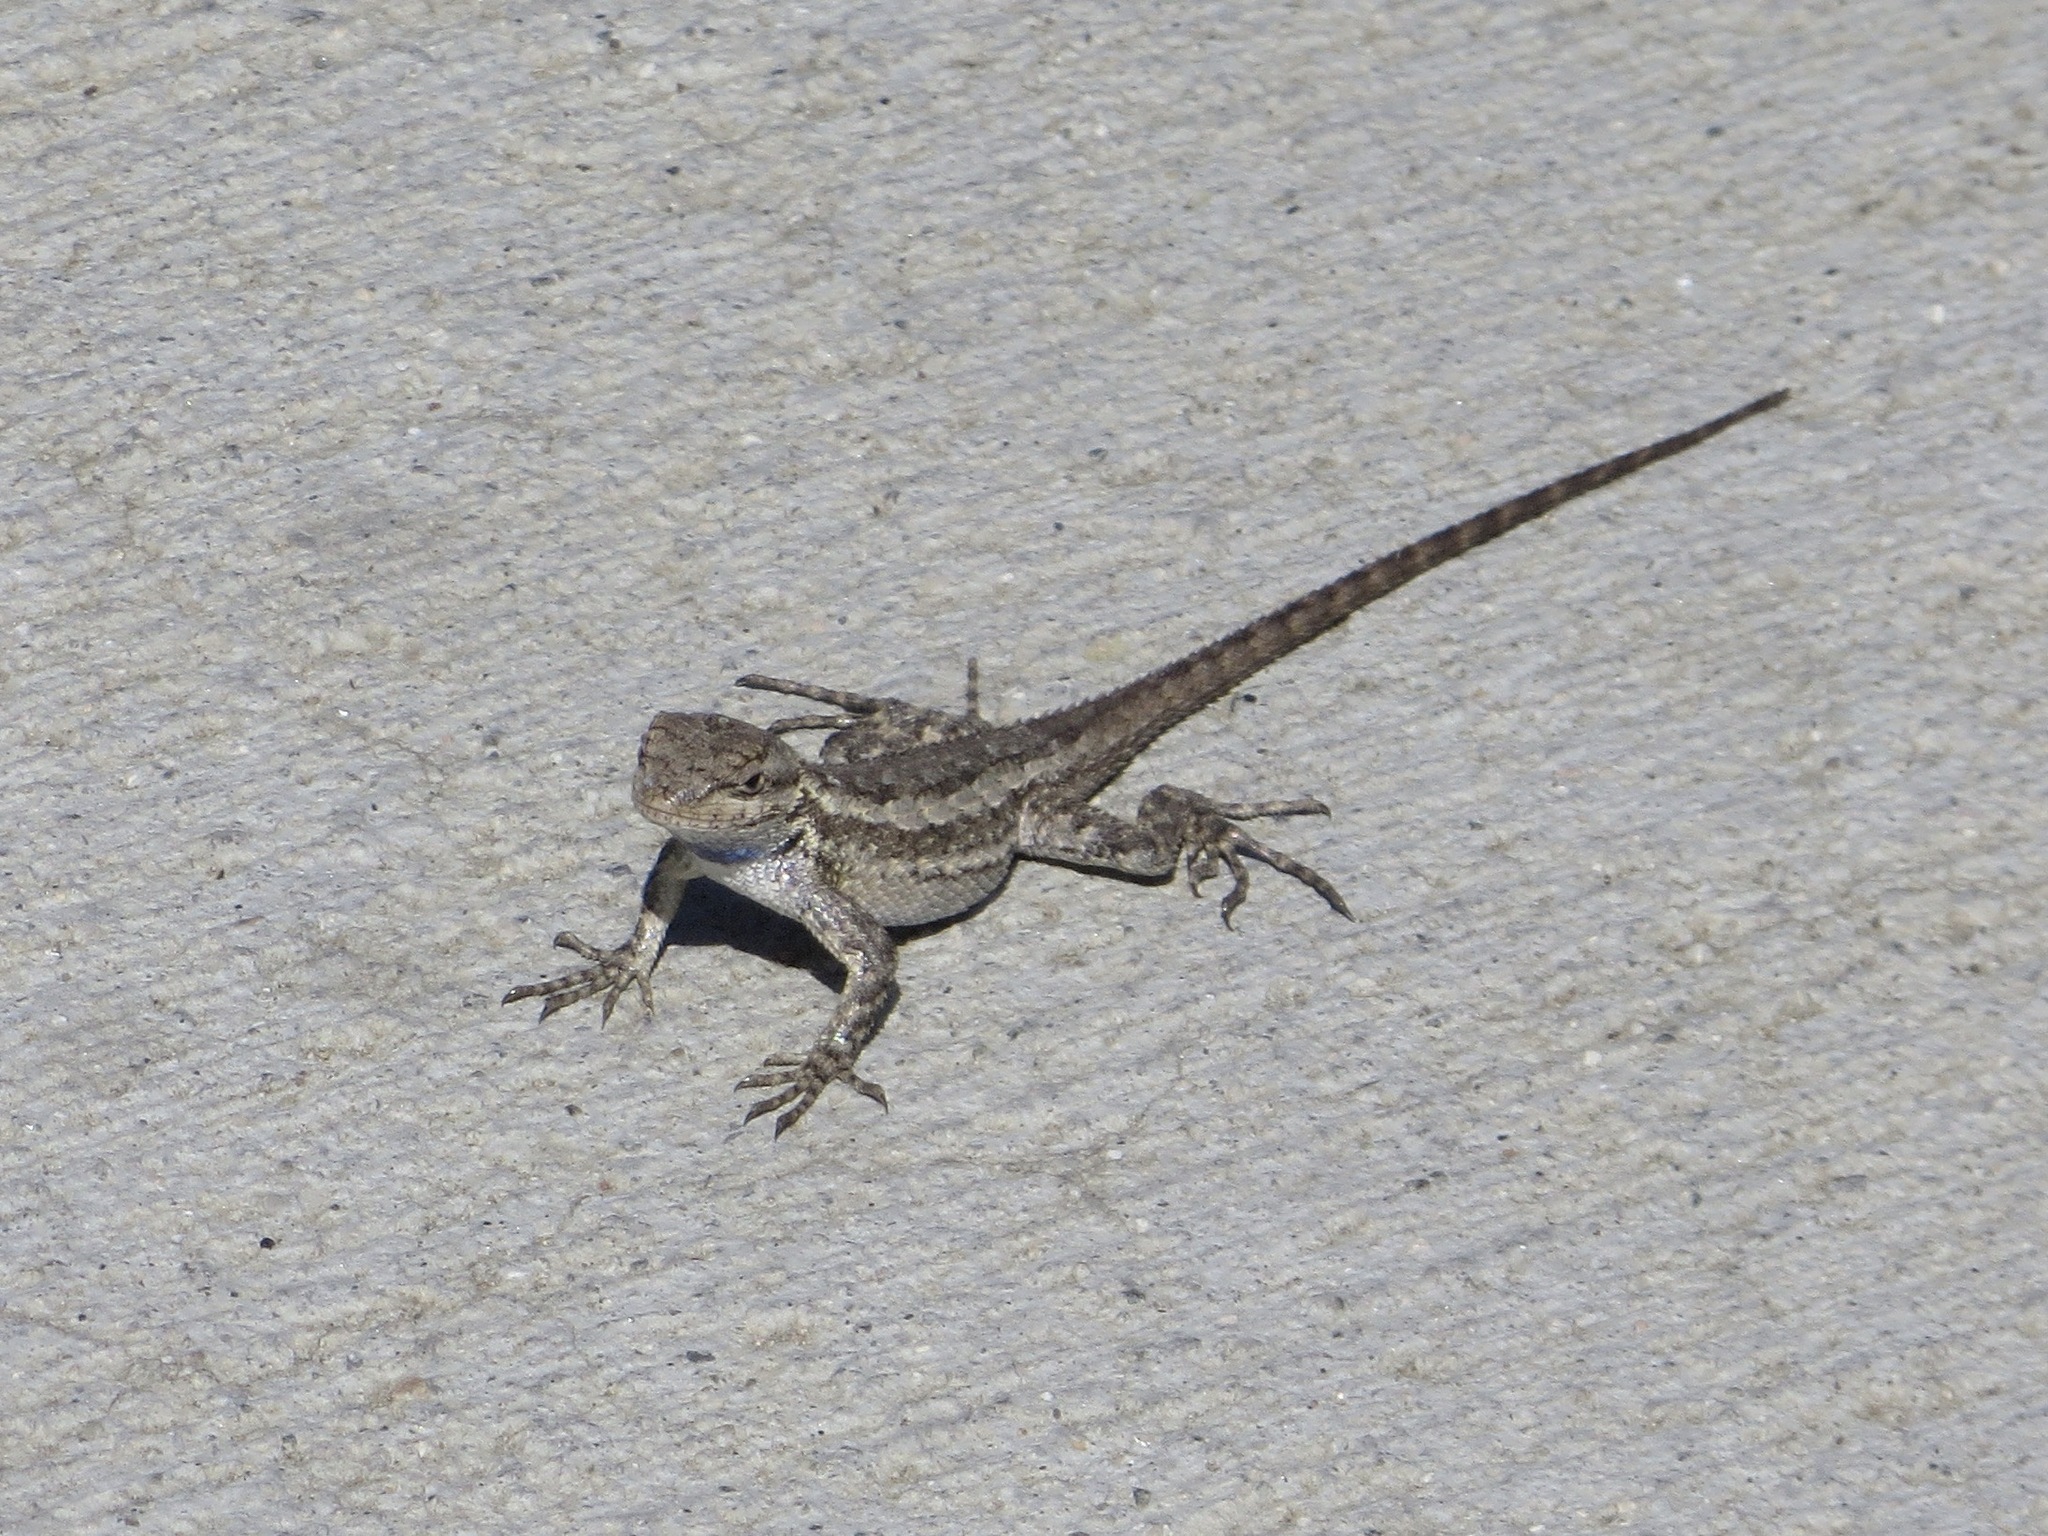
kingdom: Animalia
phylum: Chordata
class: Squamata
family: Phrynosomatidae
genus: Sceloporus
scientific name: Sceloporus occidentalis
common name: Western fence lizard
